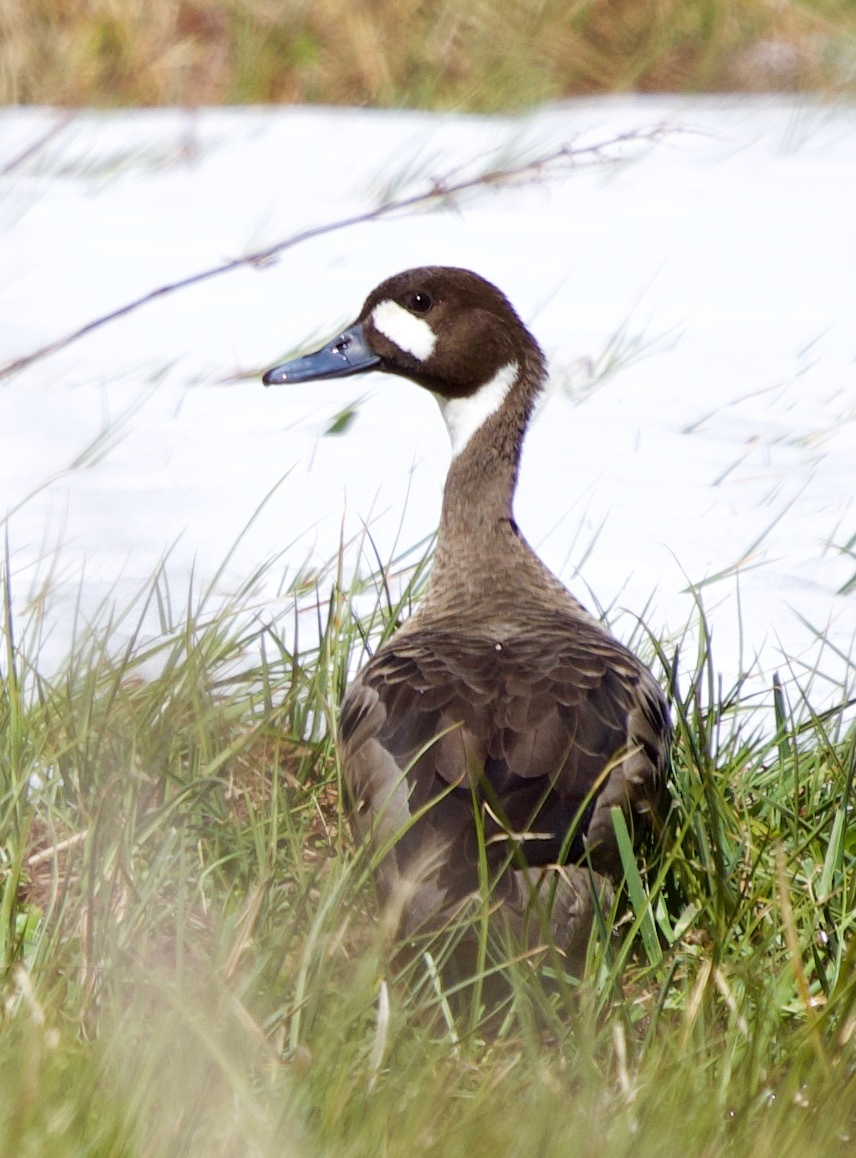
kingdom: Animalia
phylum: Chordata
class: Aves
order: Anseriformes
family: Anatidae
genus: Speculanas
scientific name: Speculanas specularis
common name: Bronze-winged duck
